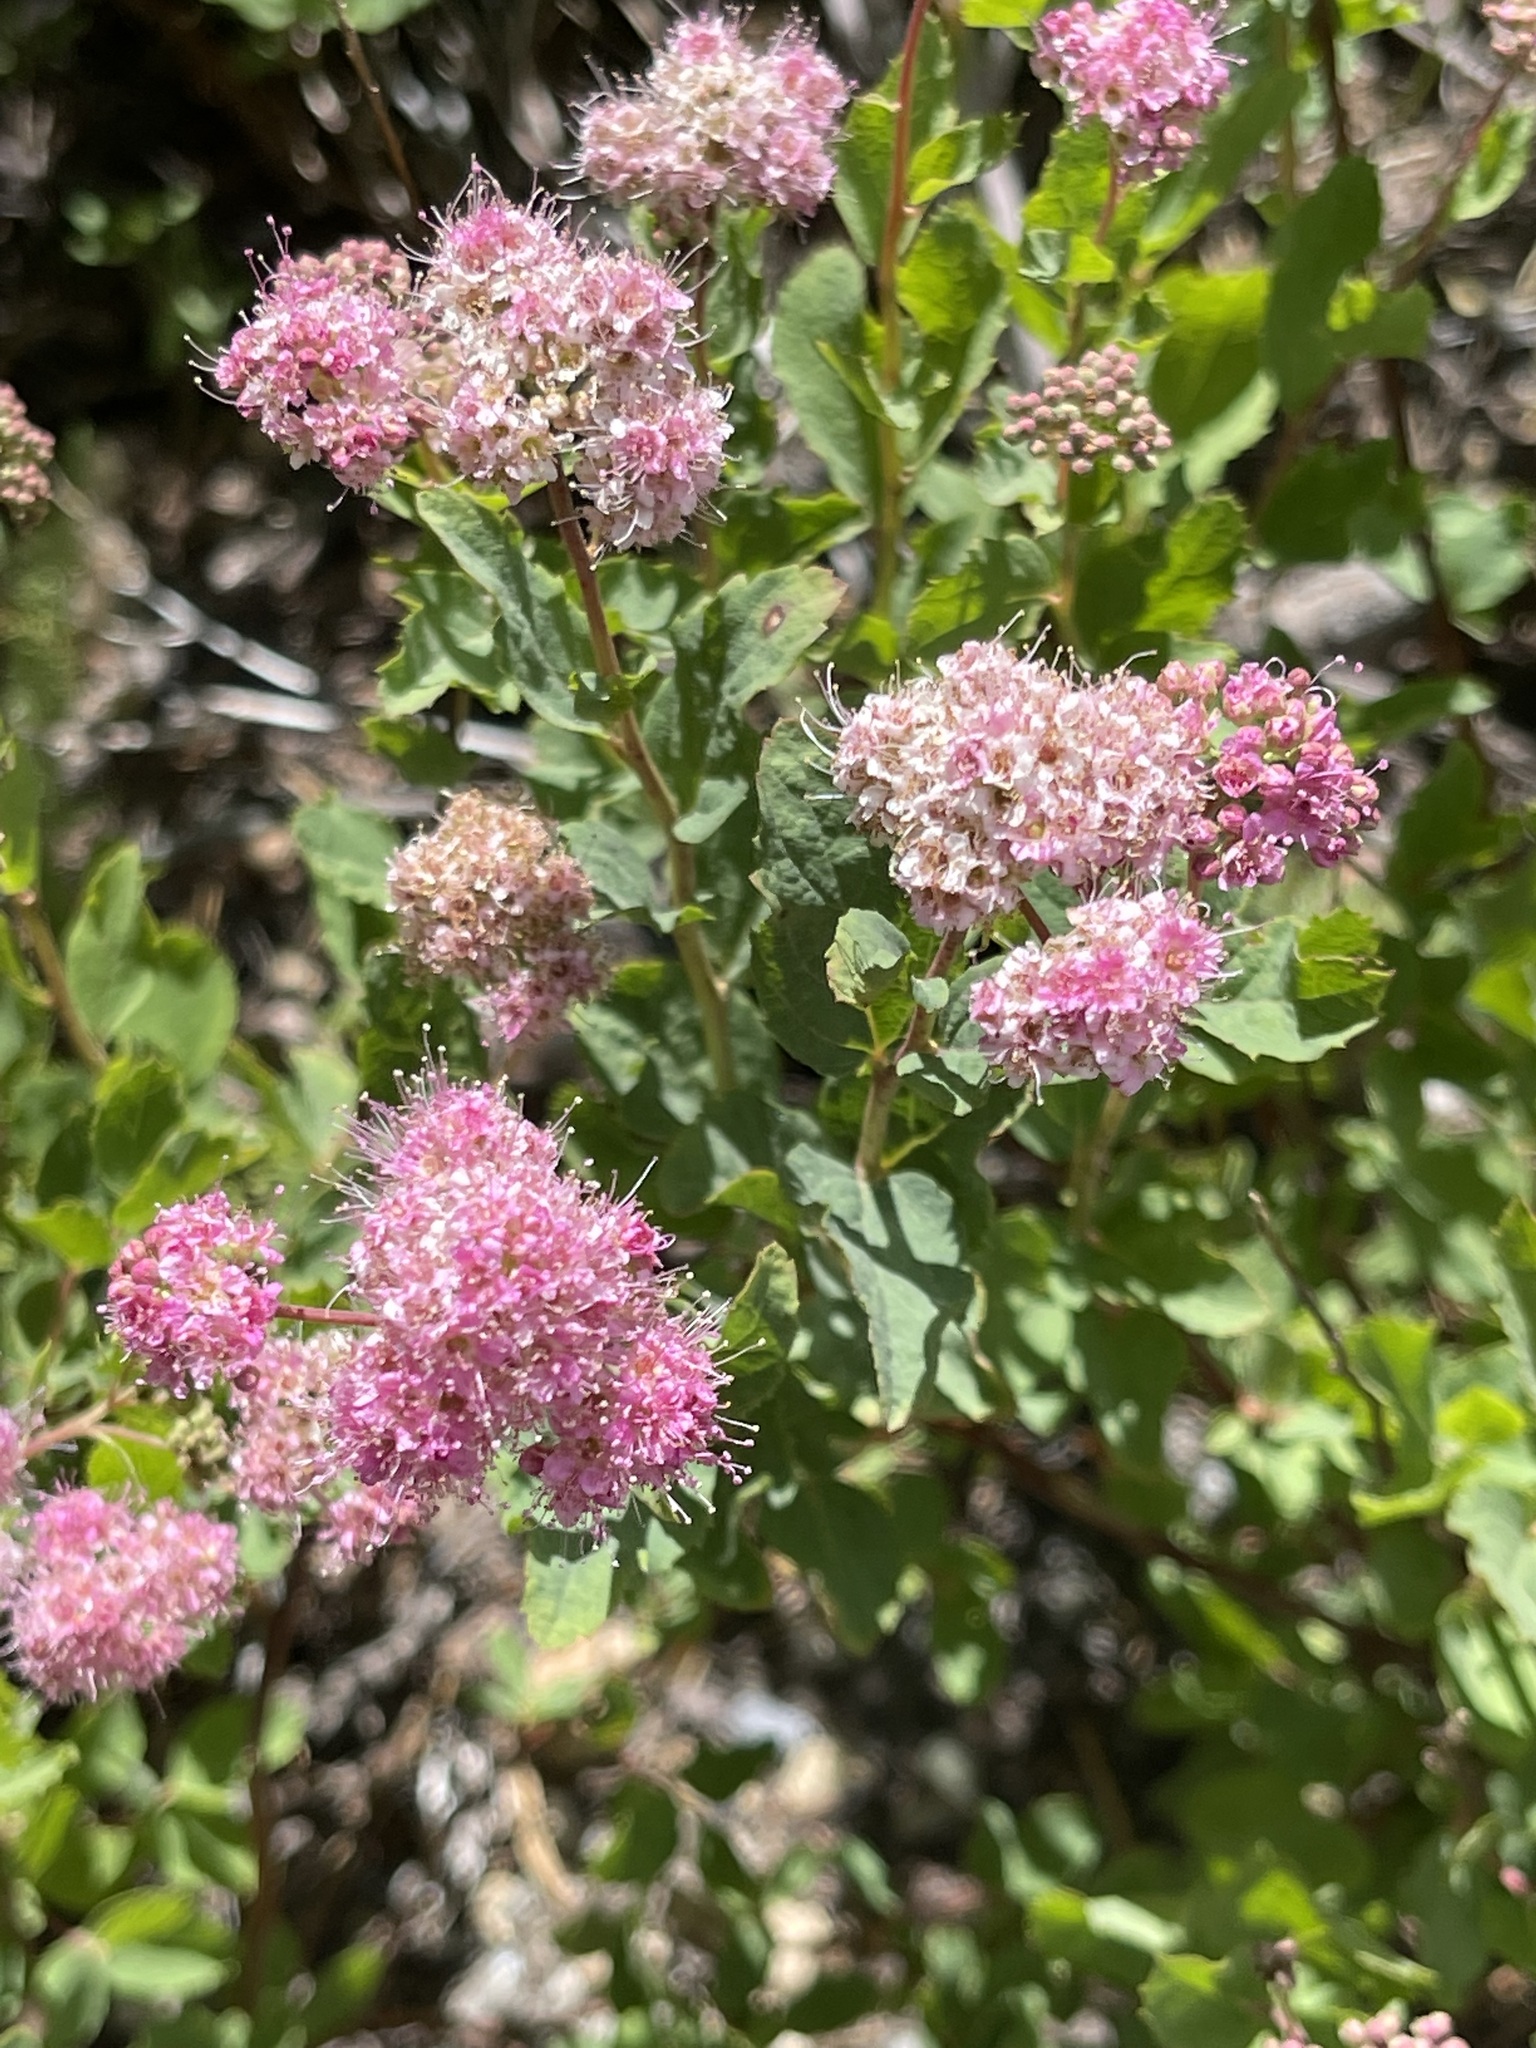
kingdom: Plantae
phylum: Tracheophyta
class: Magnoliopsida
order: Rosales
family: Rosaceae
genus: Spiraea
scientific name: Spiraea splendens
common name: Subalpine meadowsweet
